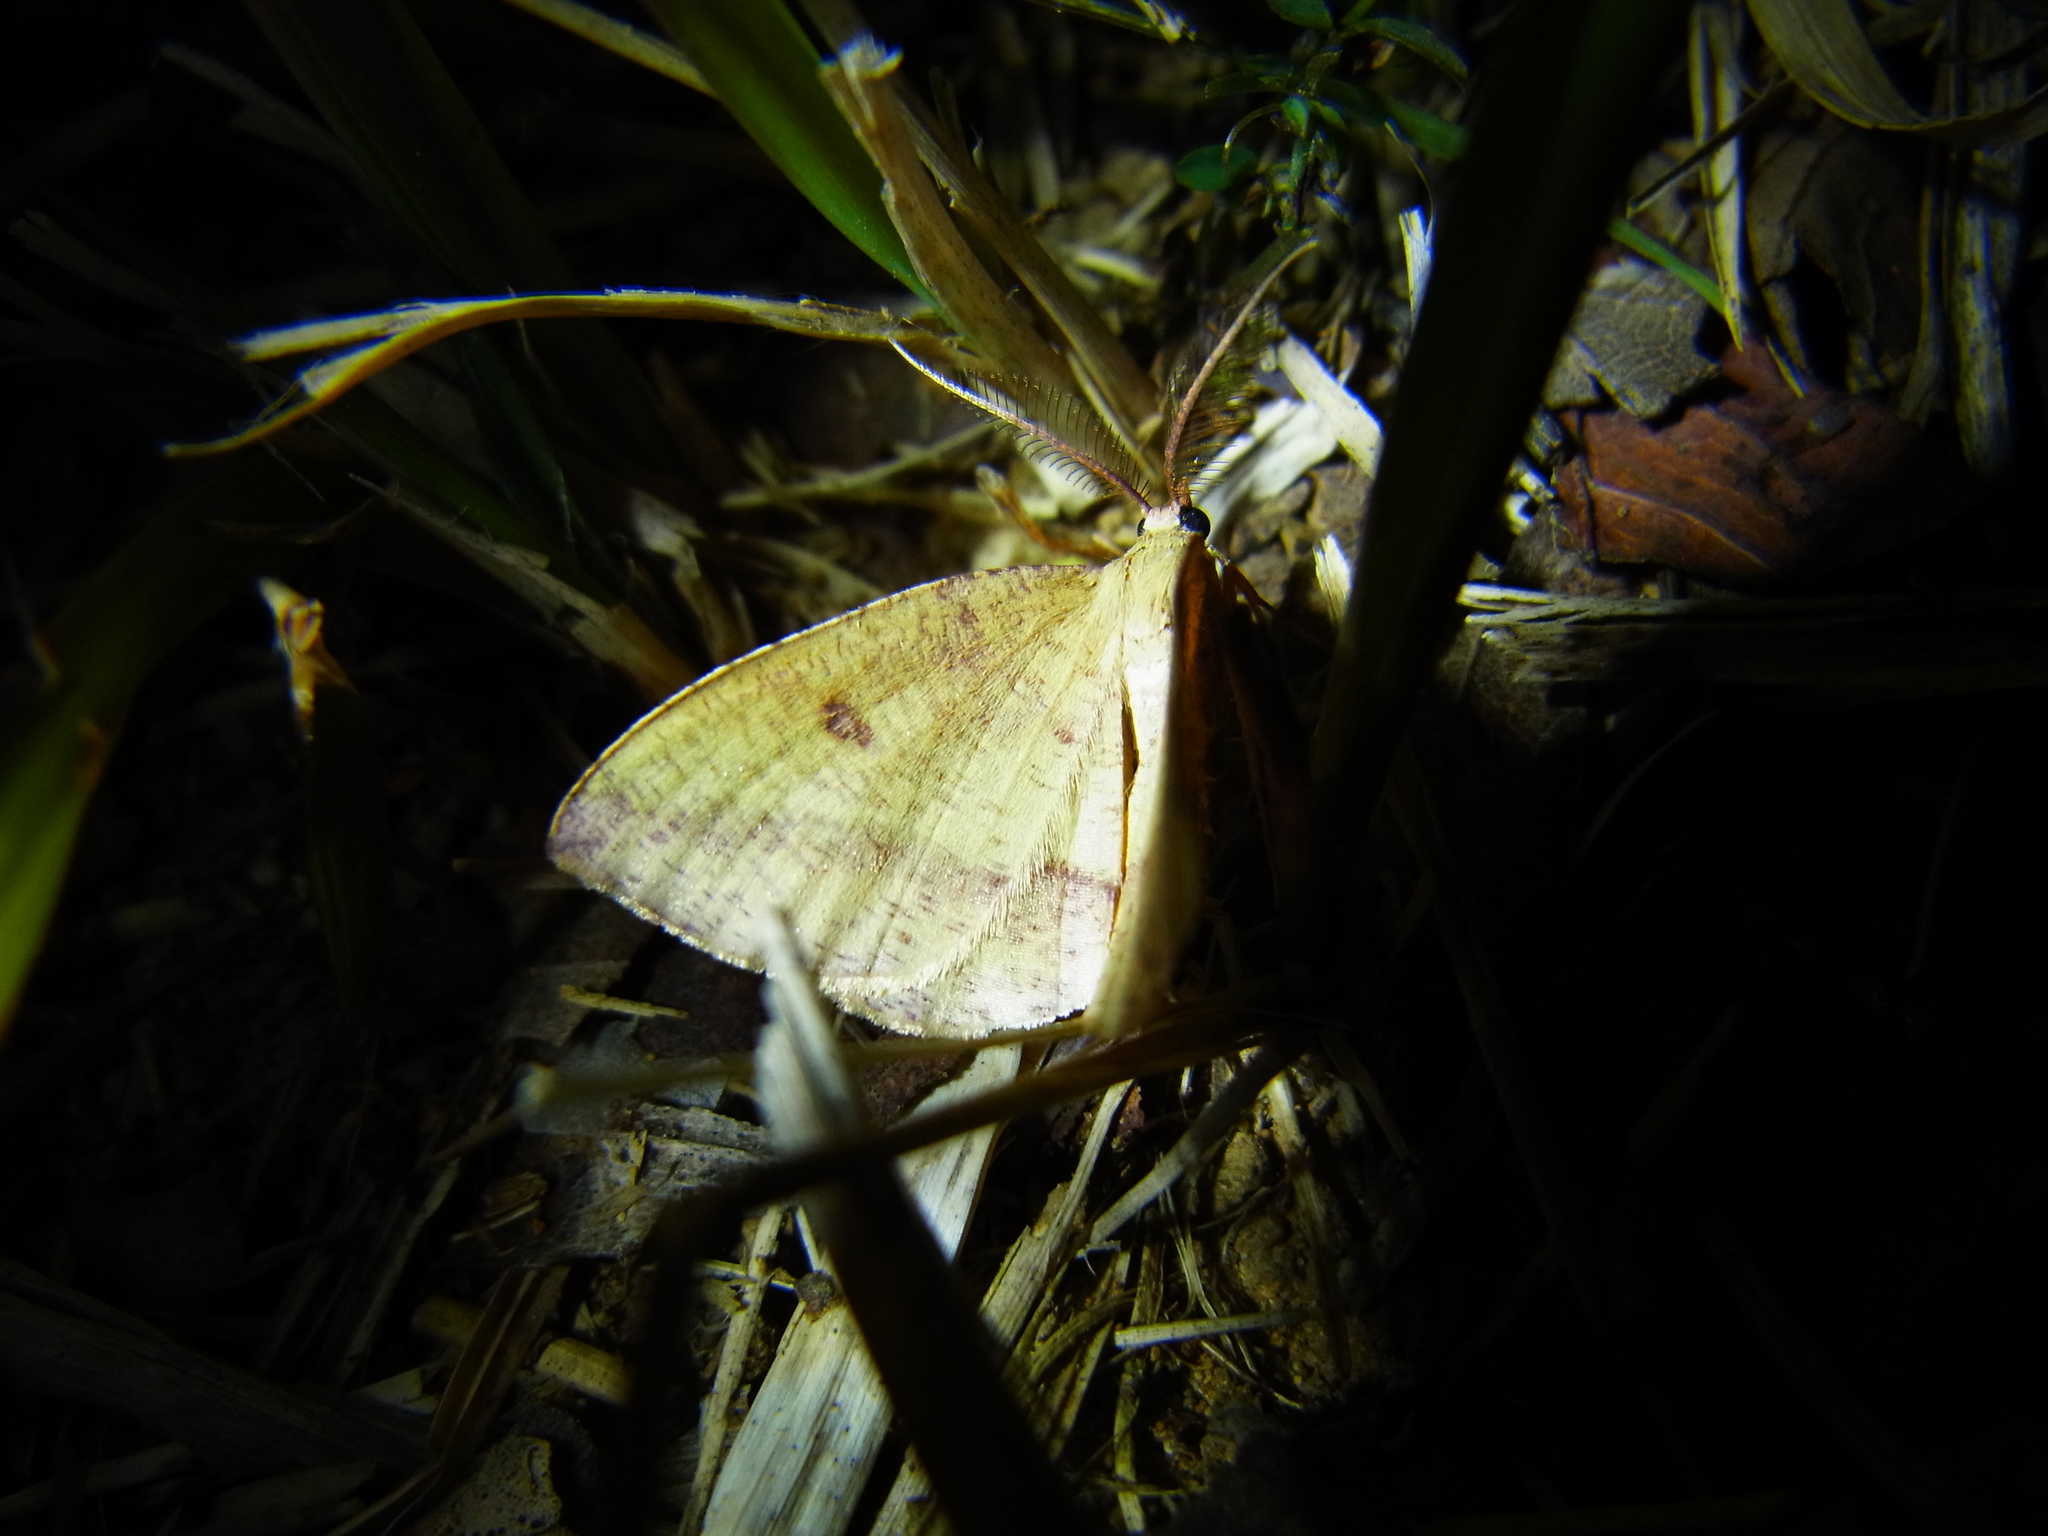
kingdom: Animalia
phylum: Arthropoda
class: Insecta
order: Lepidoptera
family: Geometridae
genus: Heterolocha
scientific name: Heterolocha aristonaria
